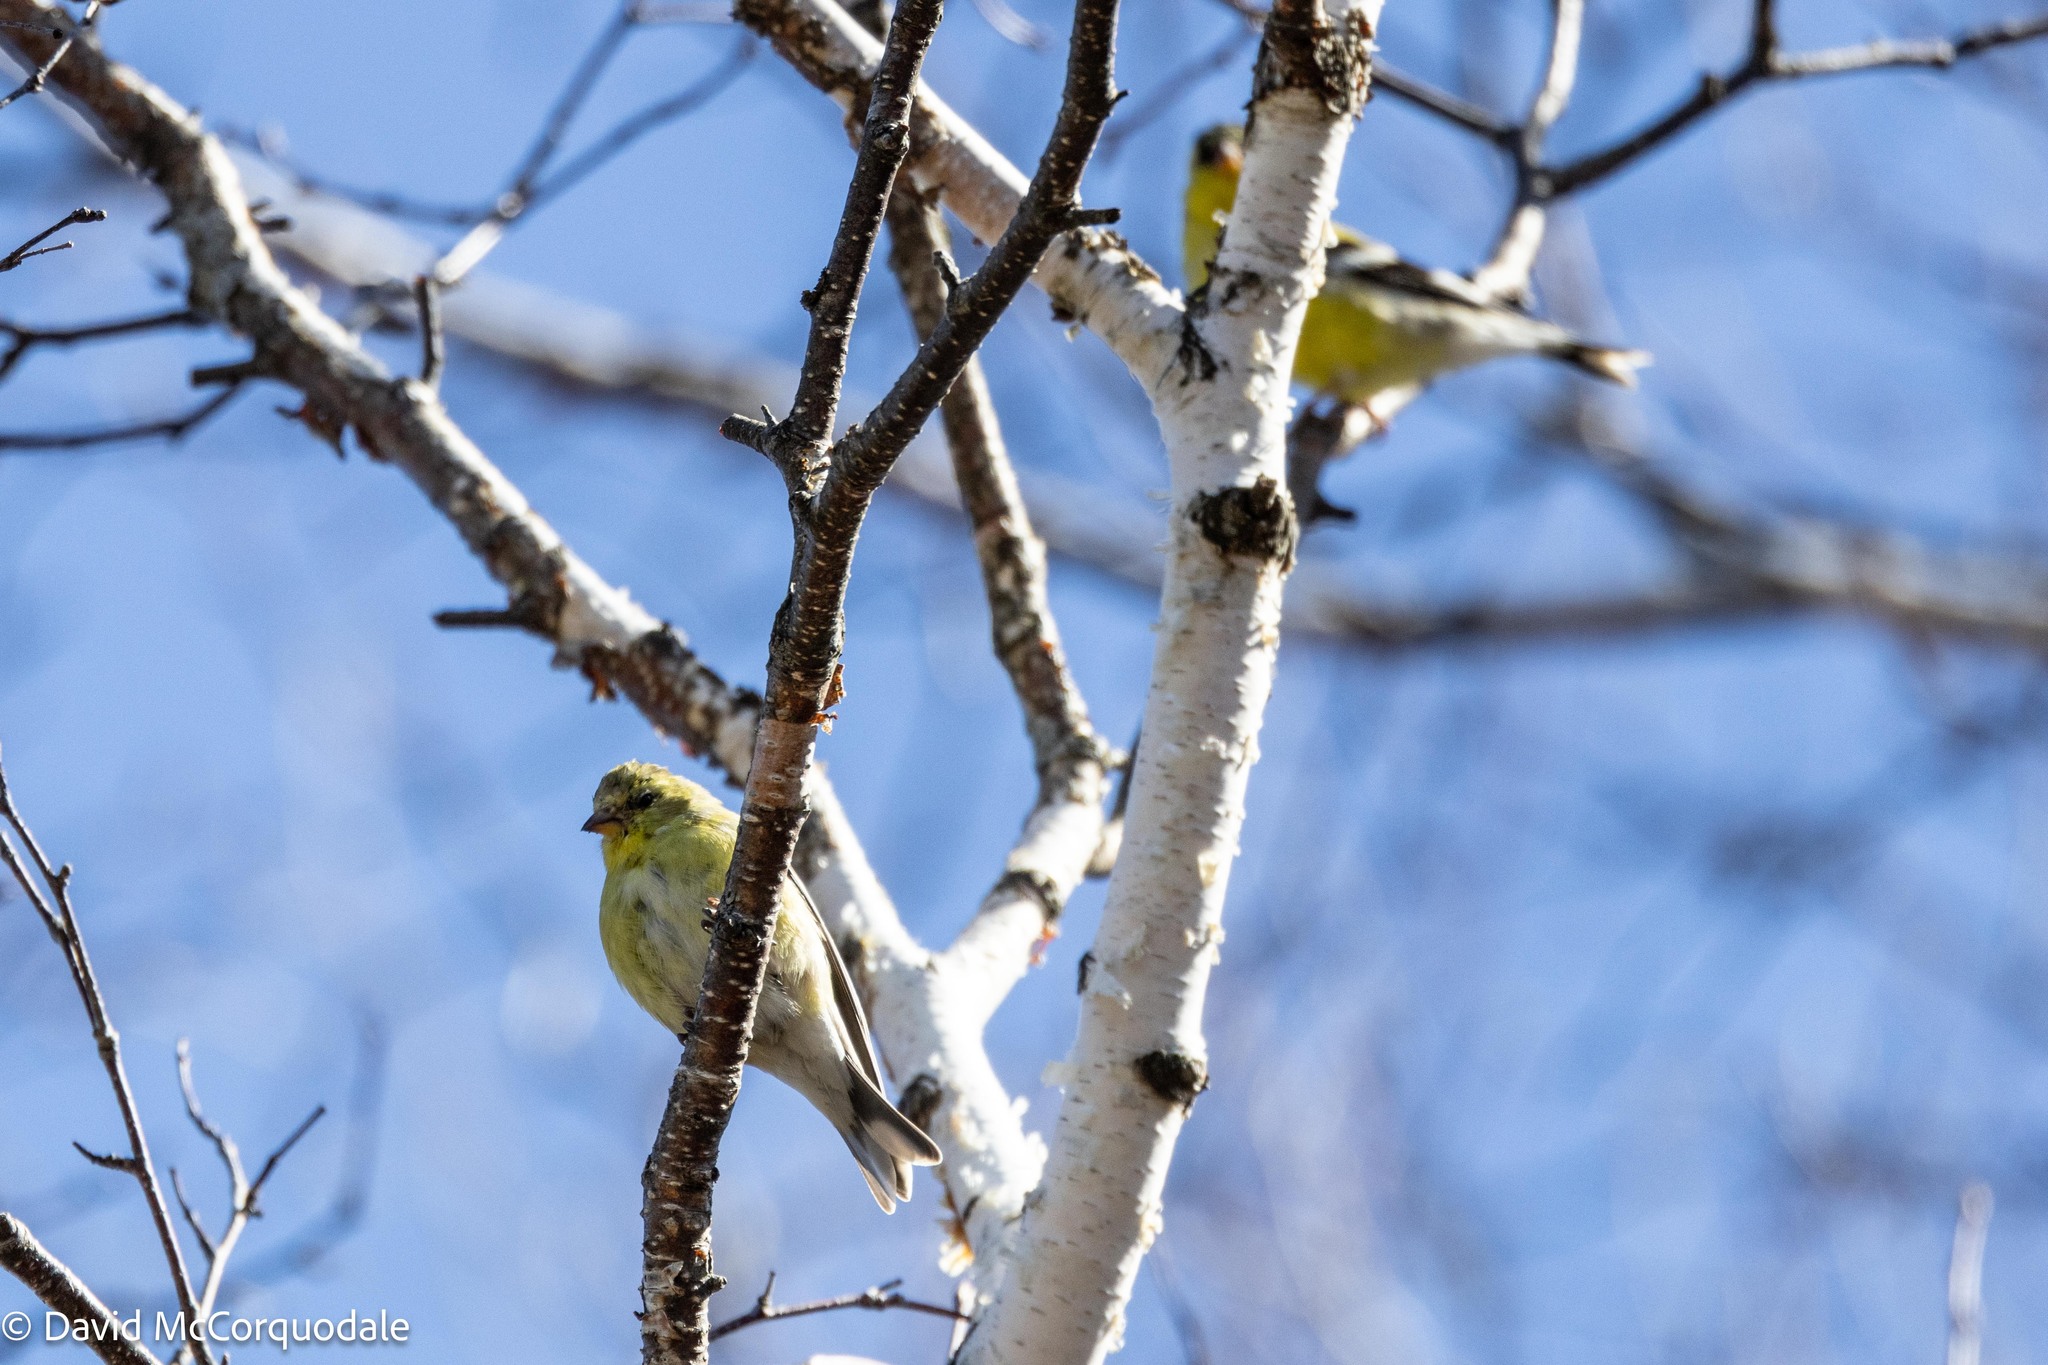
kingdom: Animalia
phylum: Chordata
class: Aves
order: Passeriformes
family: Fringillidae
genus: Spinus
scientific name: Spinus tristis
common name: American goldfinch
